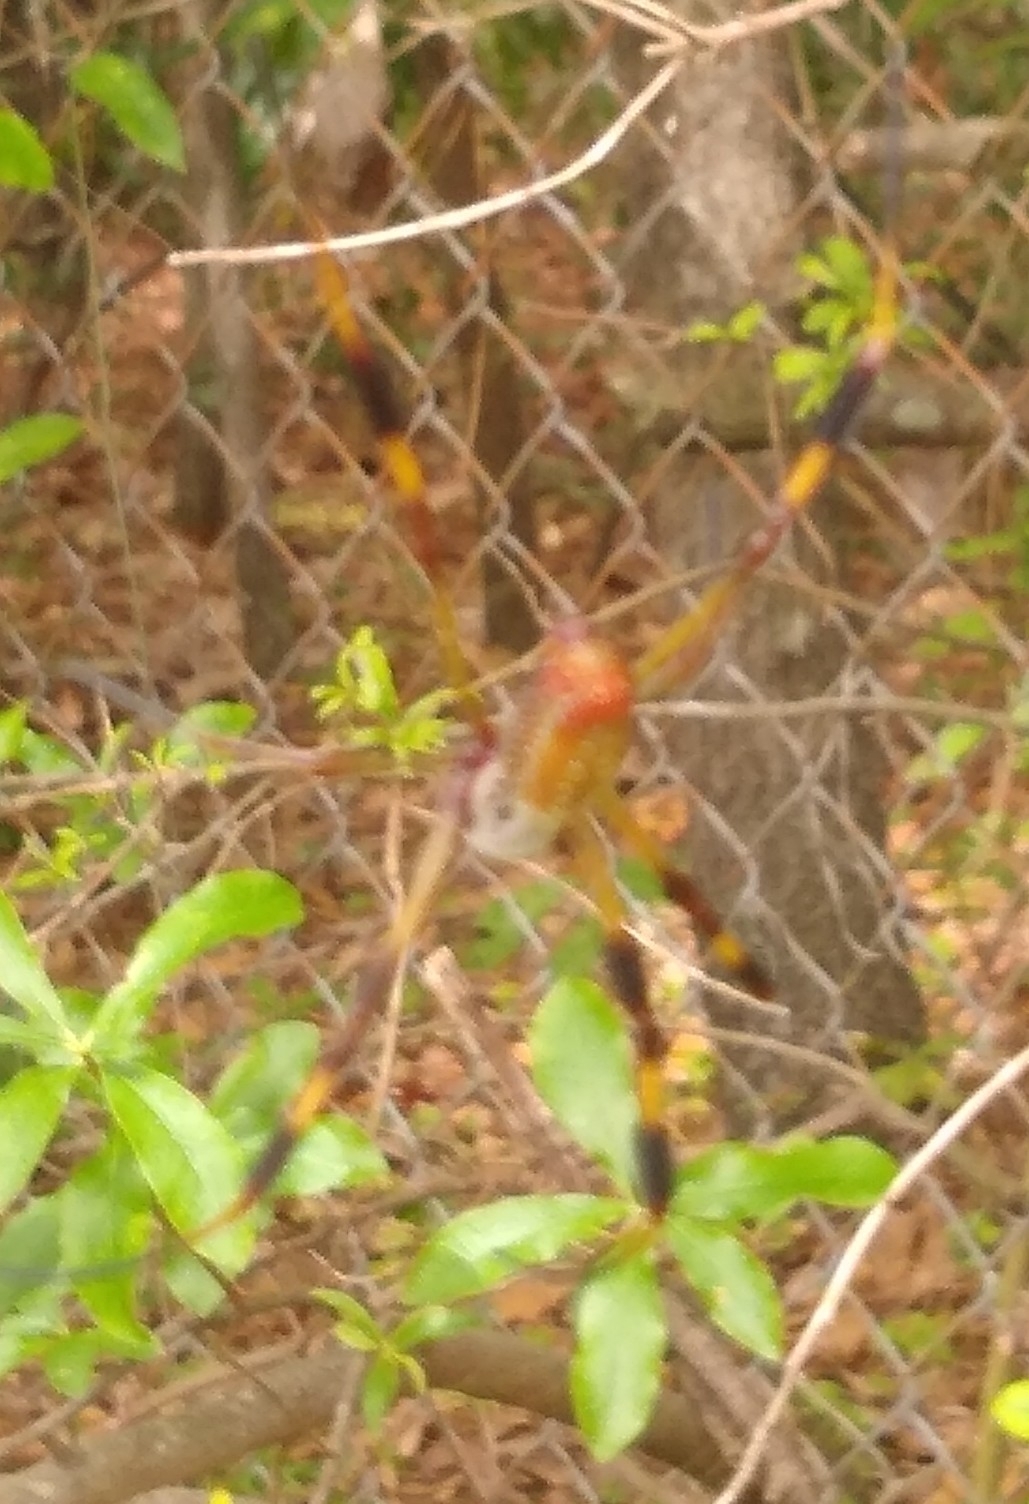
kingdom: Animalia
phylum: Arthropoda
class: Arachnida
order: Araneae
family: Araneidae
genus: Trichonephila
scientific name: Trichonephila clavipes
